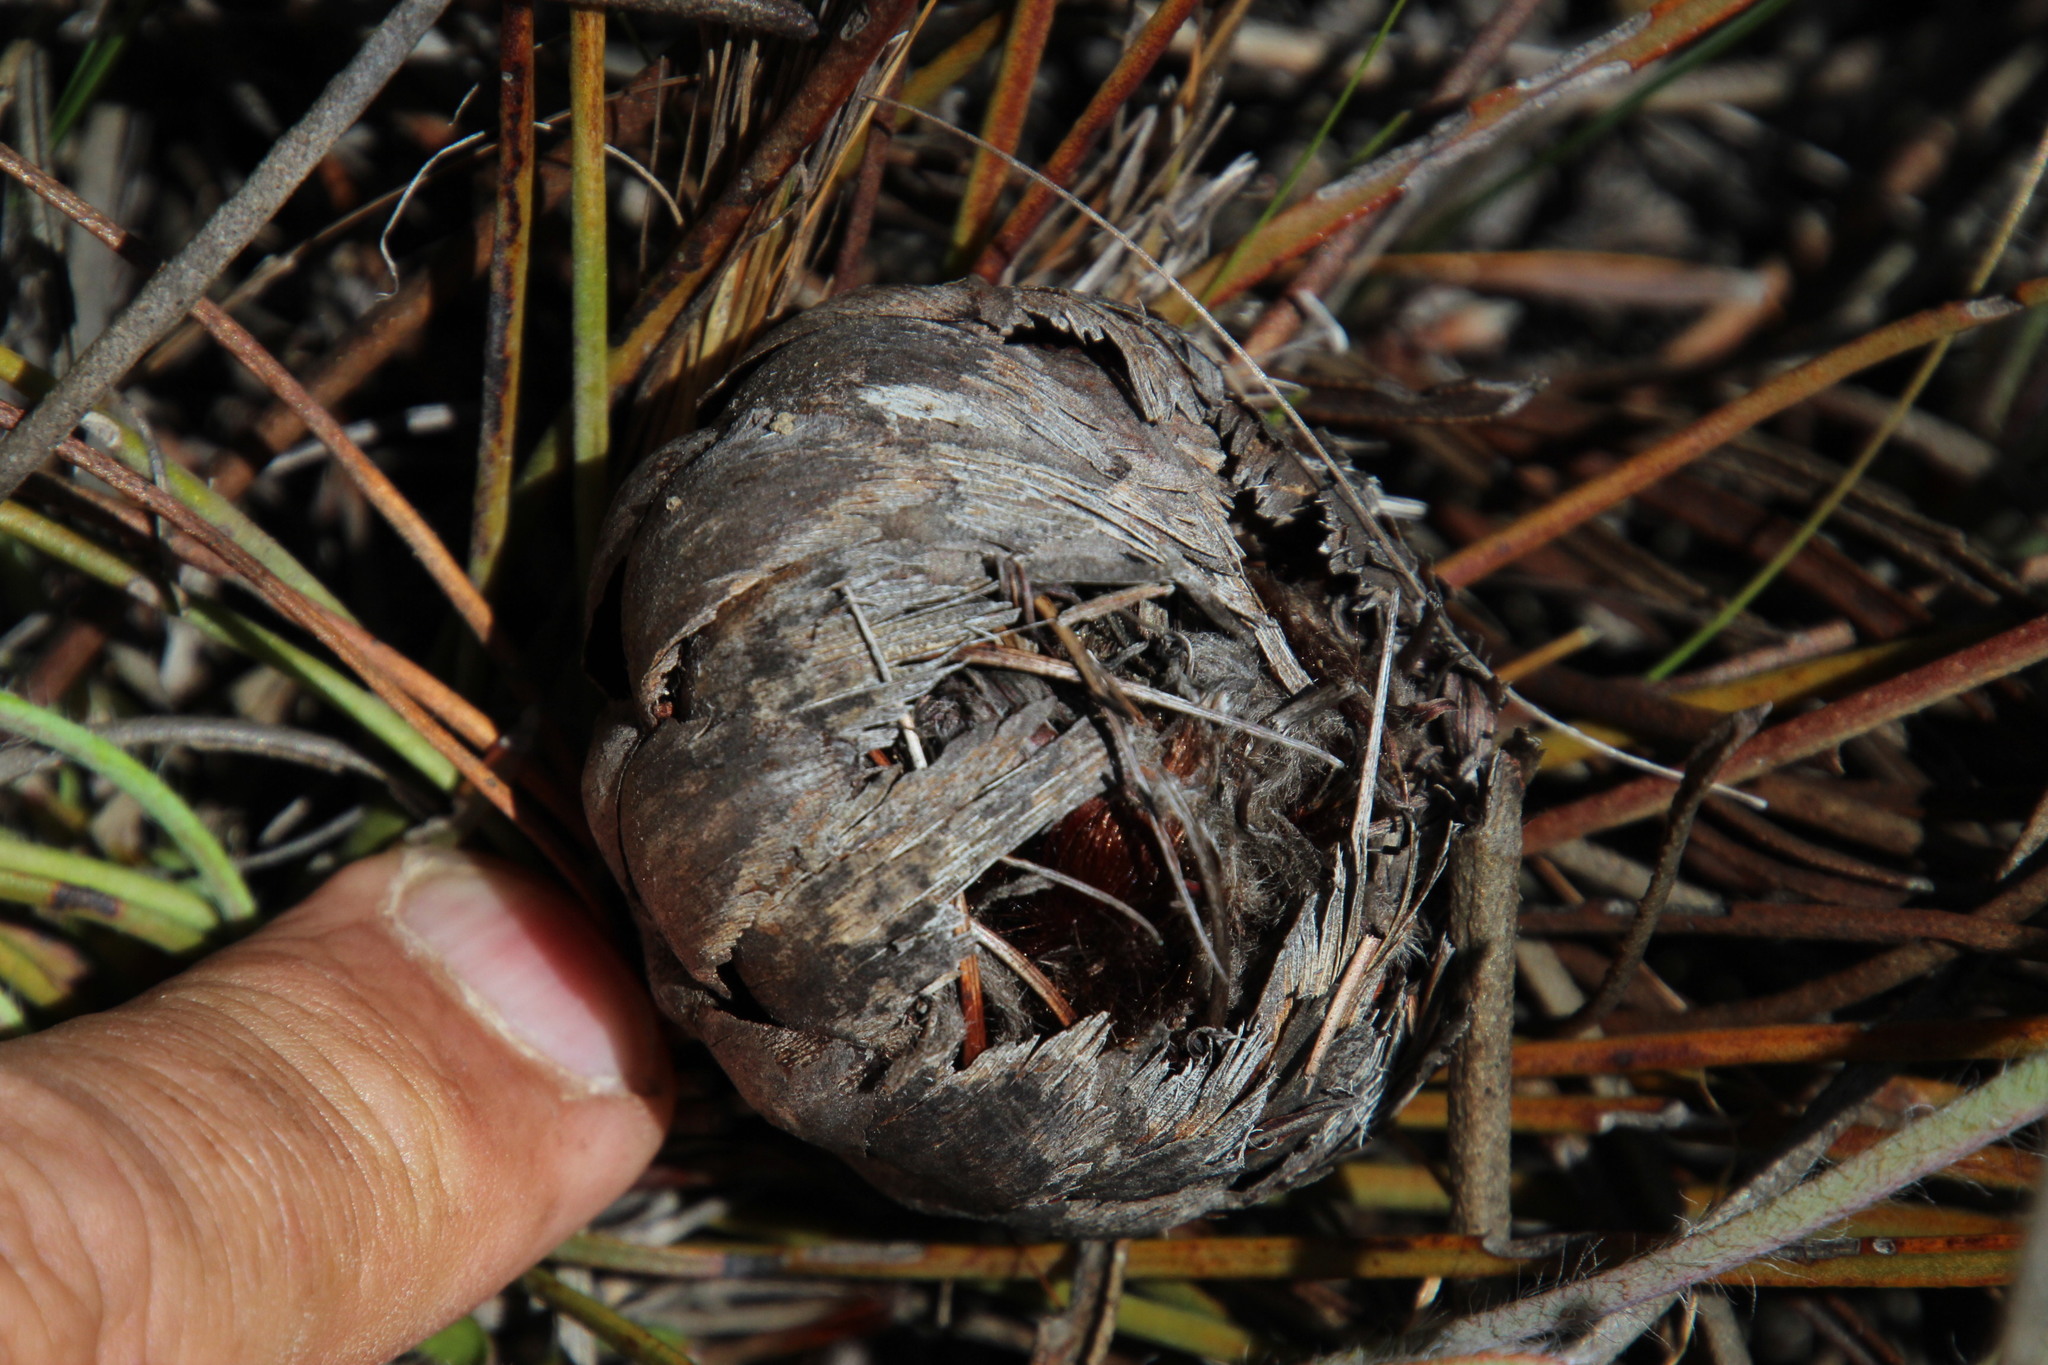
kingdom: Plantae
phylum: Tracheophyta
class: Magnoliopsida
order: Proteales
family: Proteaceae
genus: Protea
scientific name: Protea scorzonerifolia
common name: Channel-leaf sugarbush
